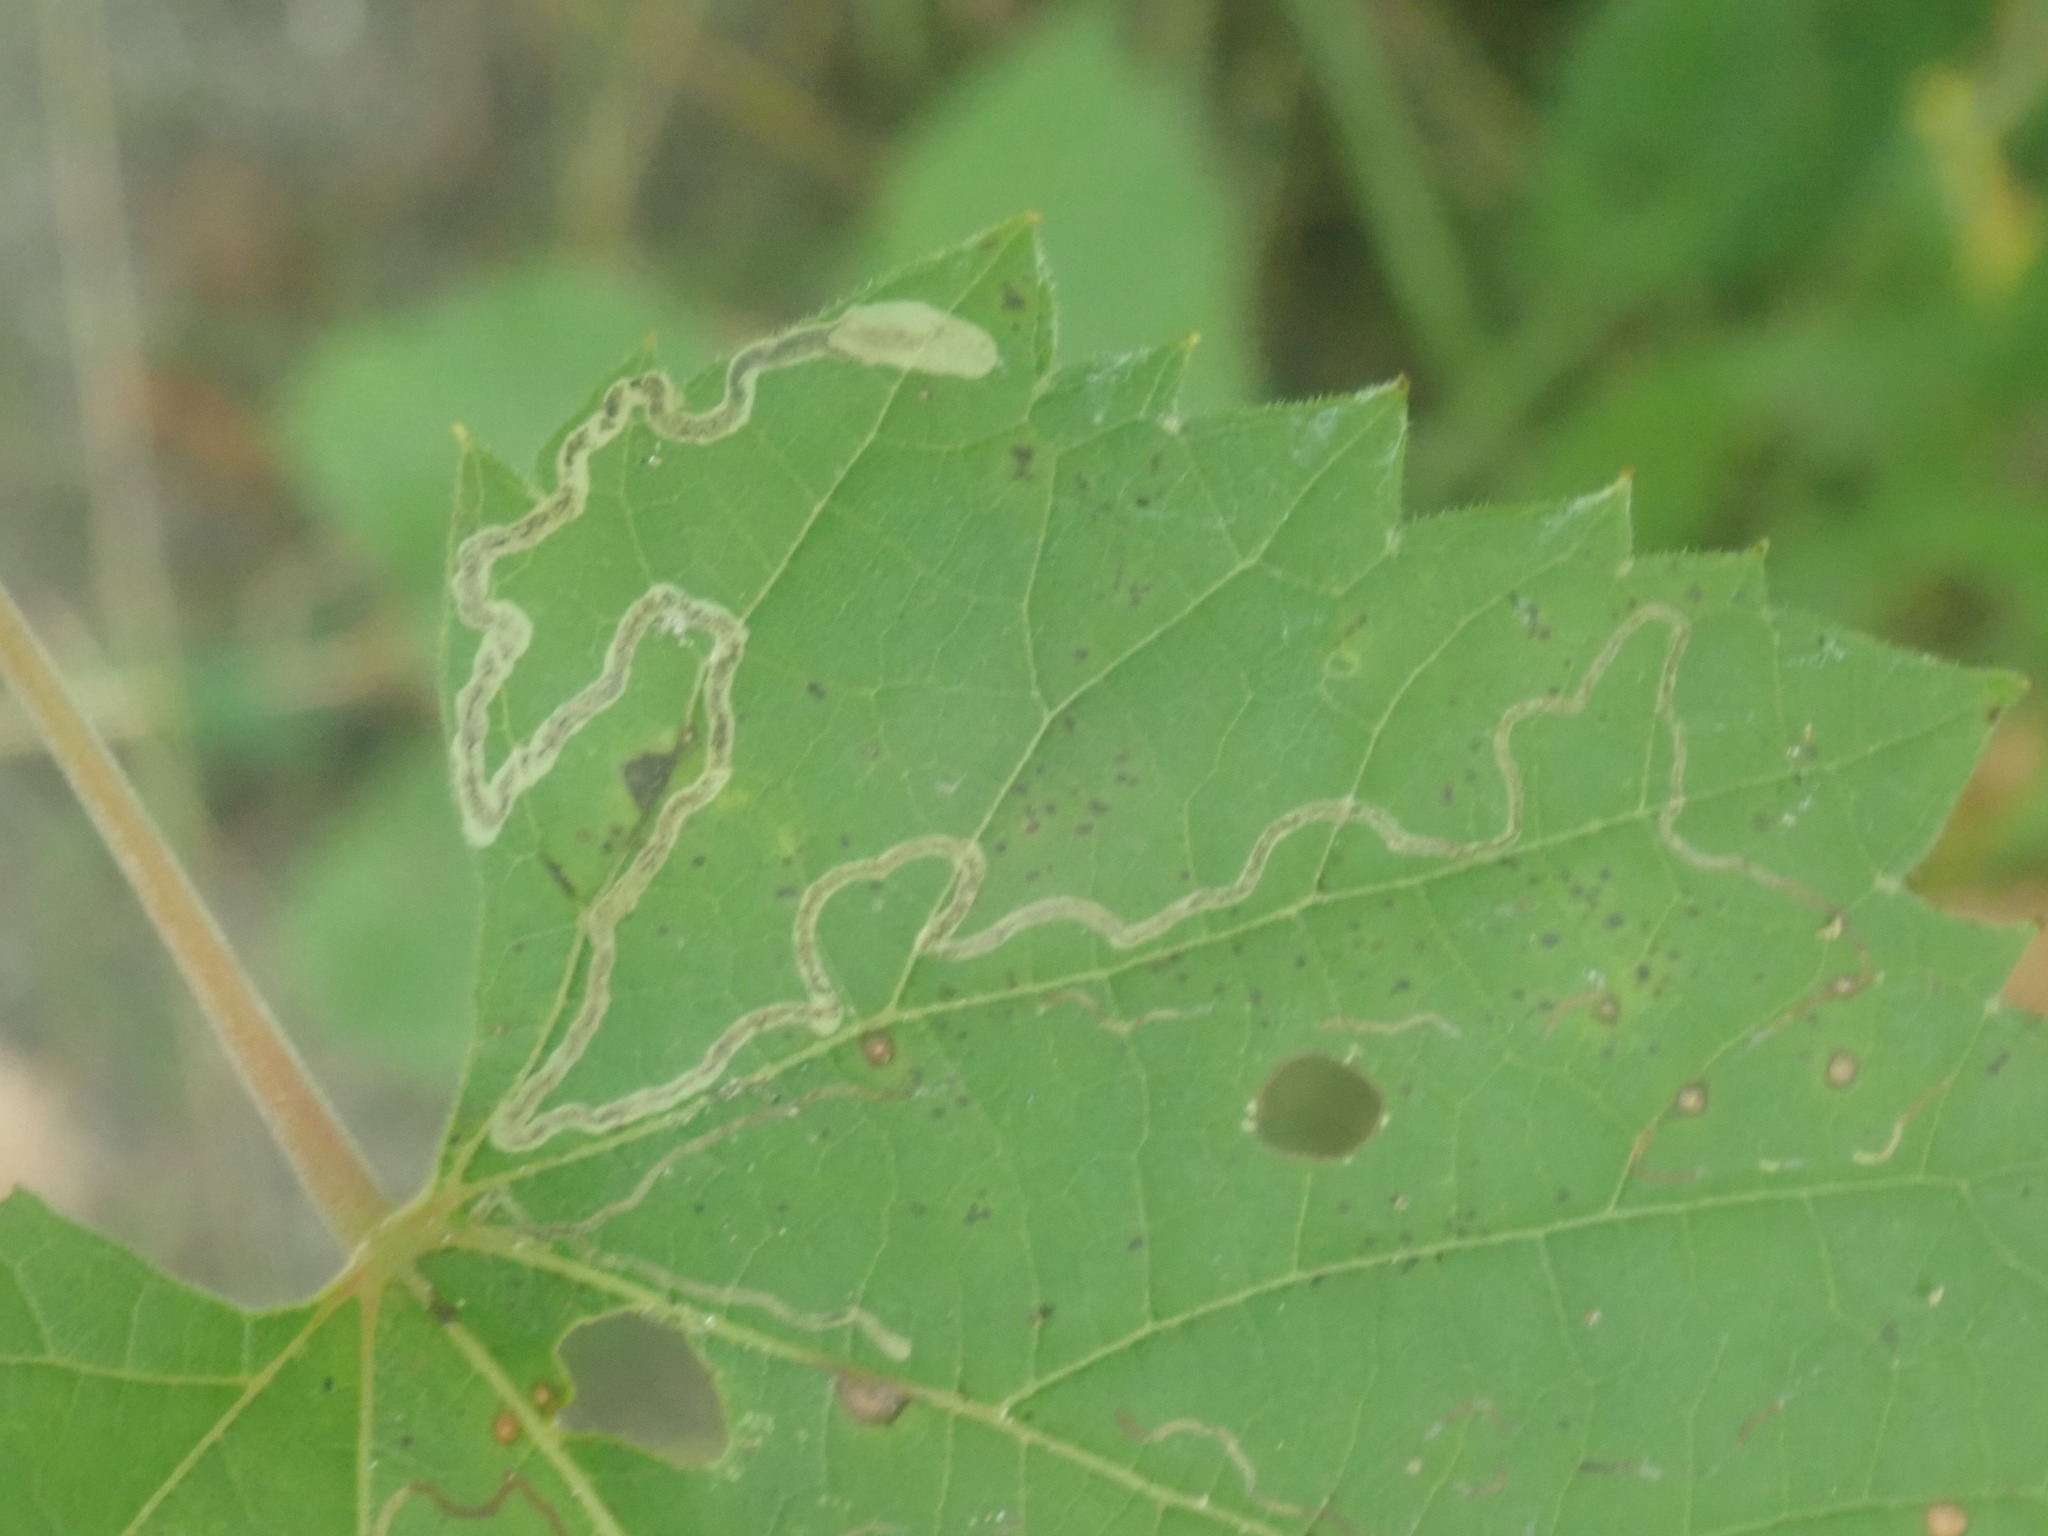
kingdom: Animalia
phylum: Arthropoda
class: Insecta
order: Lepidoptera
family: Gracillariidae
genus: Phyllocnistis
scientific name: Phyllocnistis vitifoliella
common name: Grape leaf-miner moth
